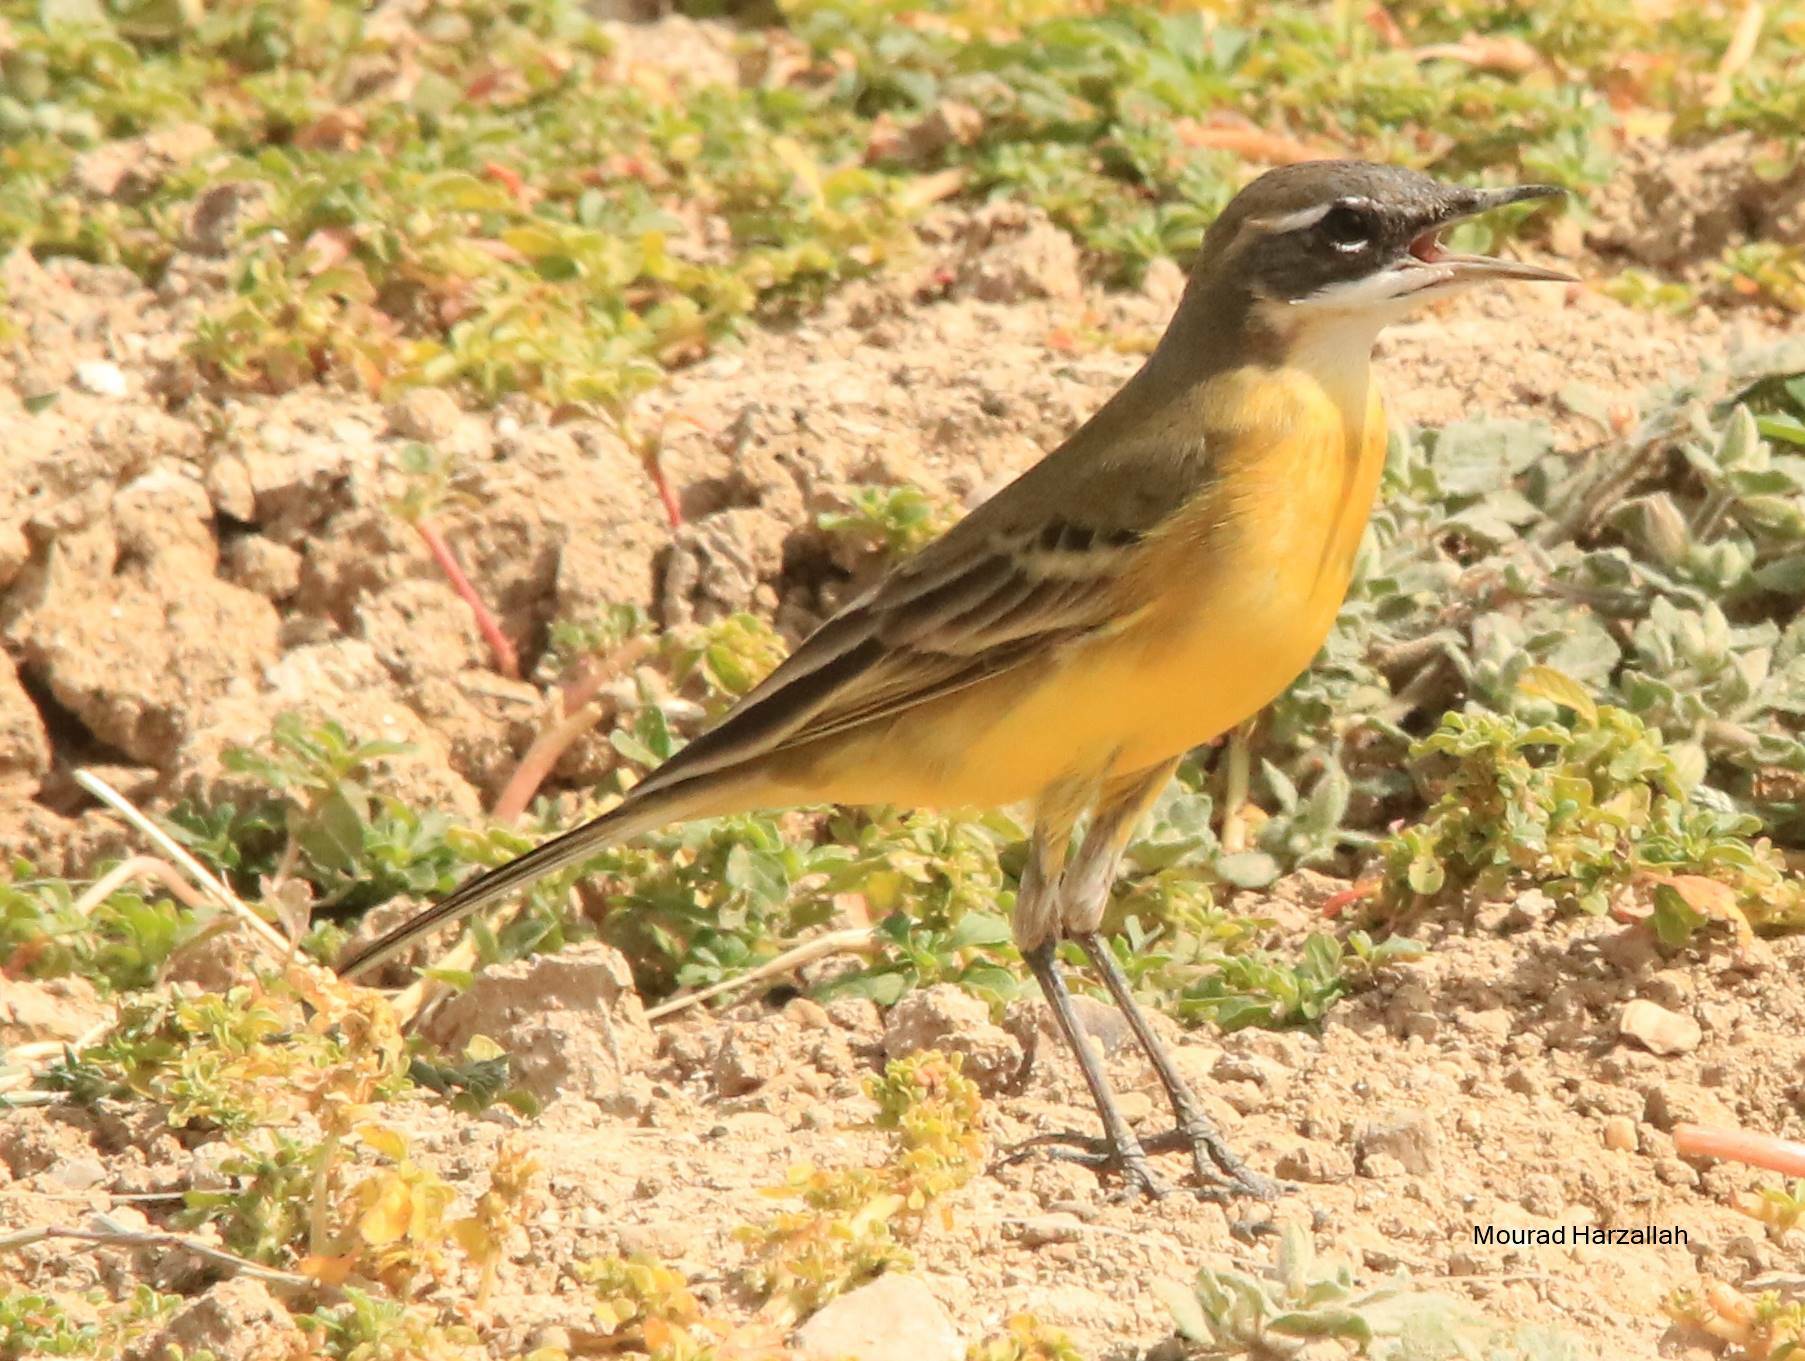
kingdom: Animalia
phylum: Chordata
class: Aves
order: Passeriformes
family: Motacillidae
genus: Motacilla
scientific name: Motacilla flava
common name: Western yellow wagtail
